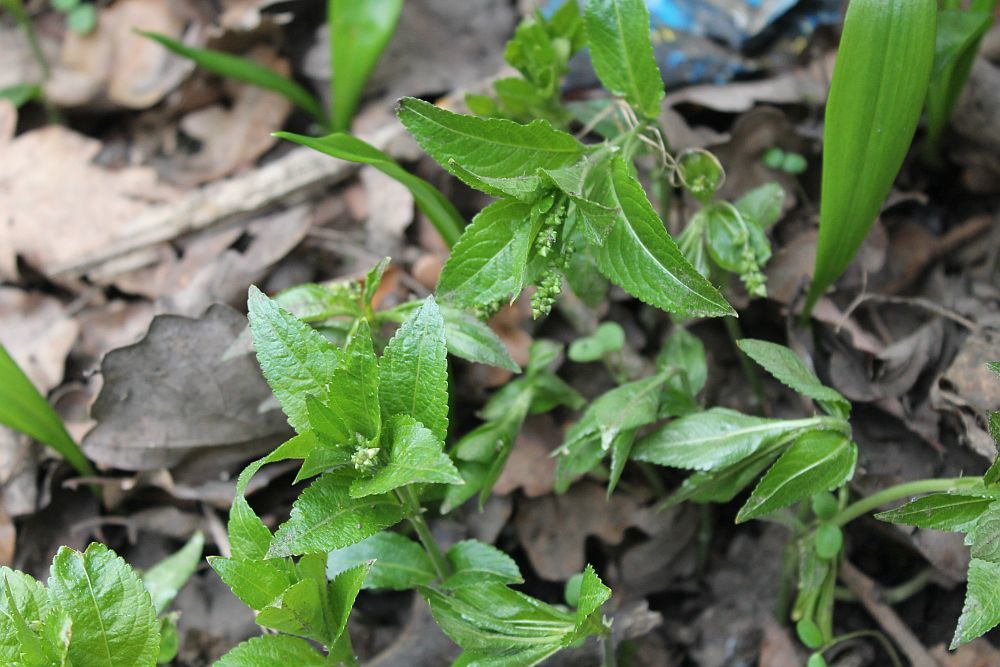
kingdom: Plantae
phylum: Tracheophyta
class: Magnoliopsida
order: Malpighiales
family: Euphorbiaceae
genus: Mercurialis
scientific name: Mercurialis perennis
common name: Dog mercury
